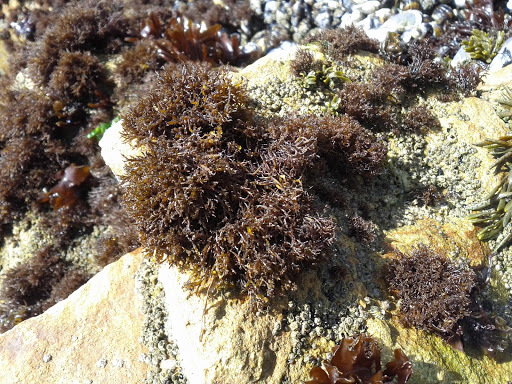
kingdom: Plantae
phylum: Rhodophyta
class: Florideophyceae
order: Gigartinales
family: Endocladiaceae
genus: Endocladia
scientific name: Endocladia muricata
